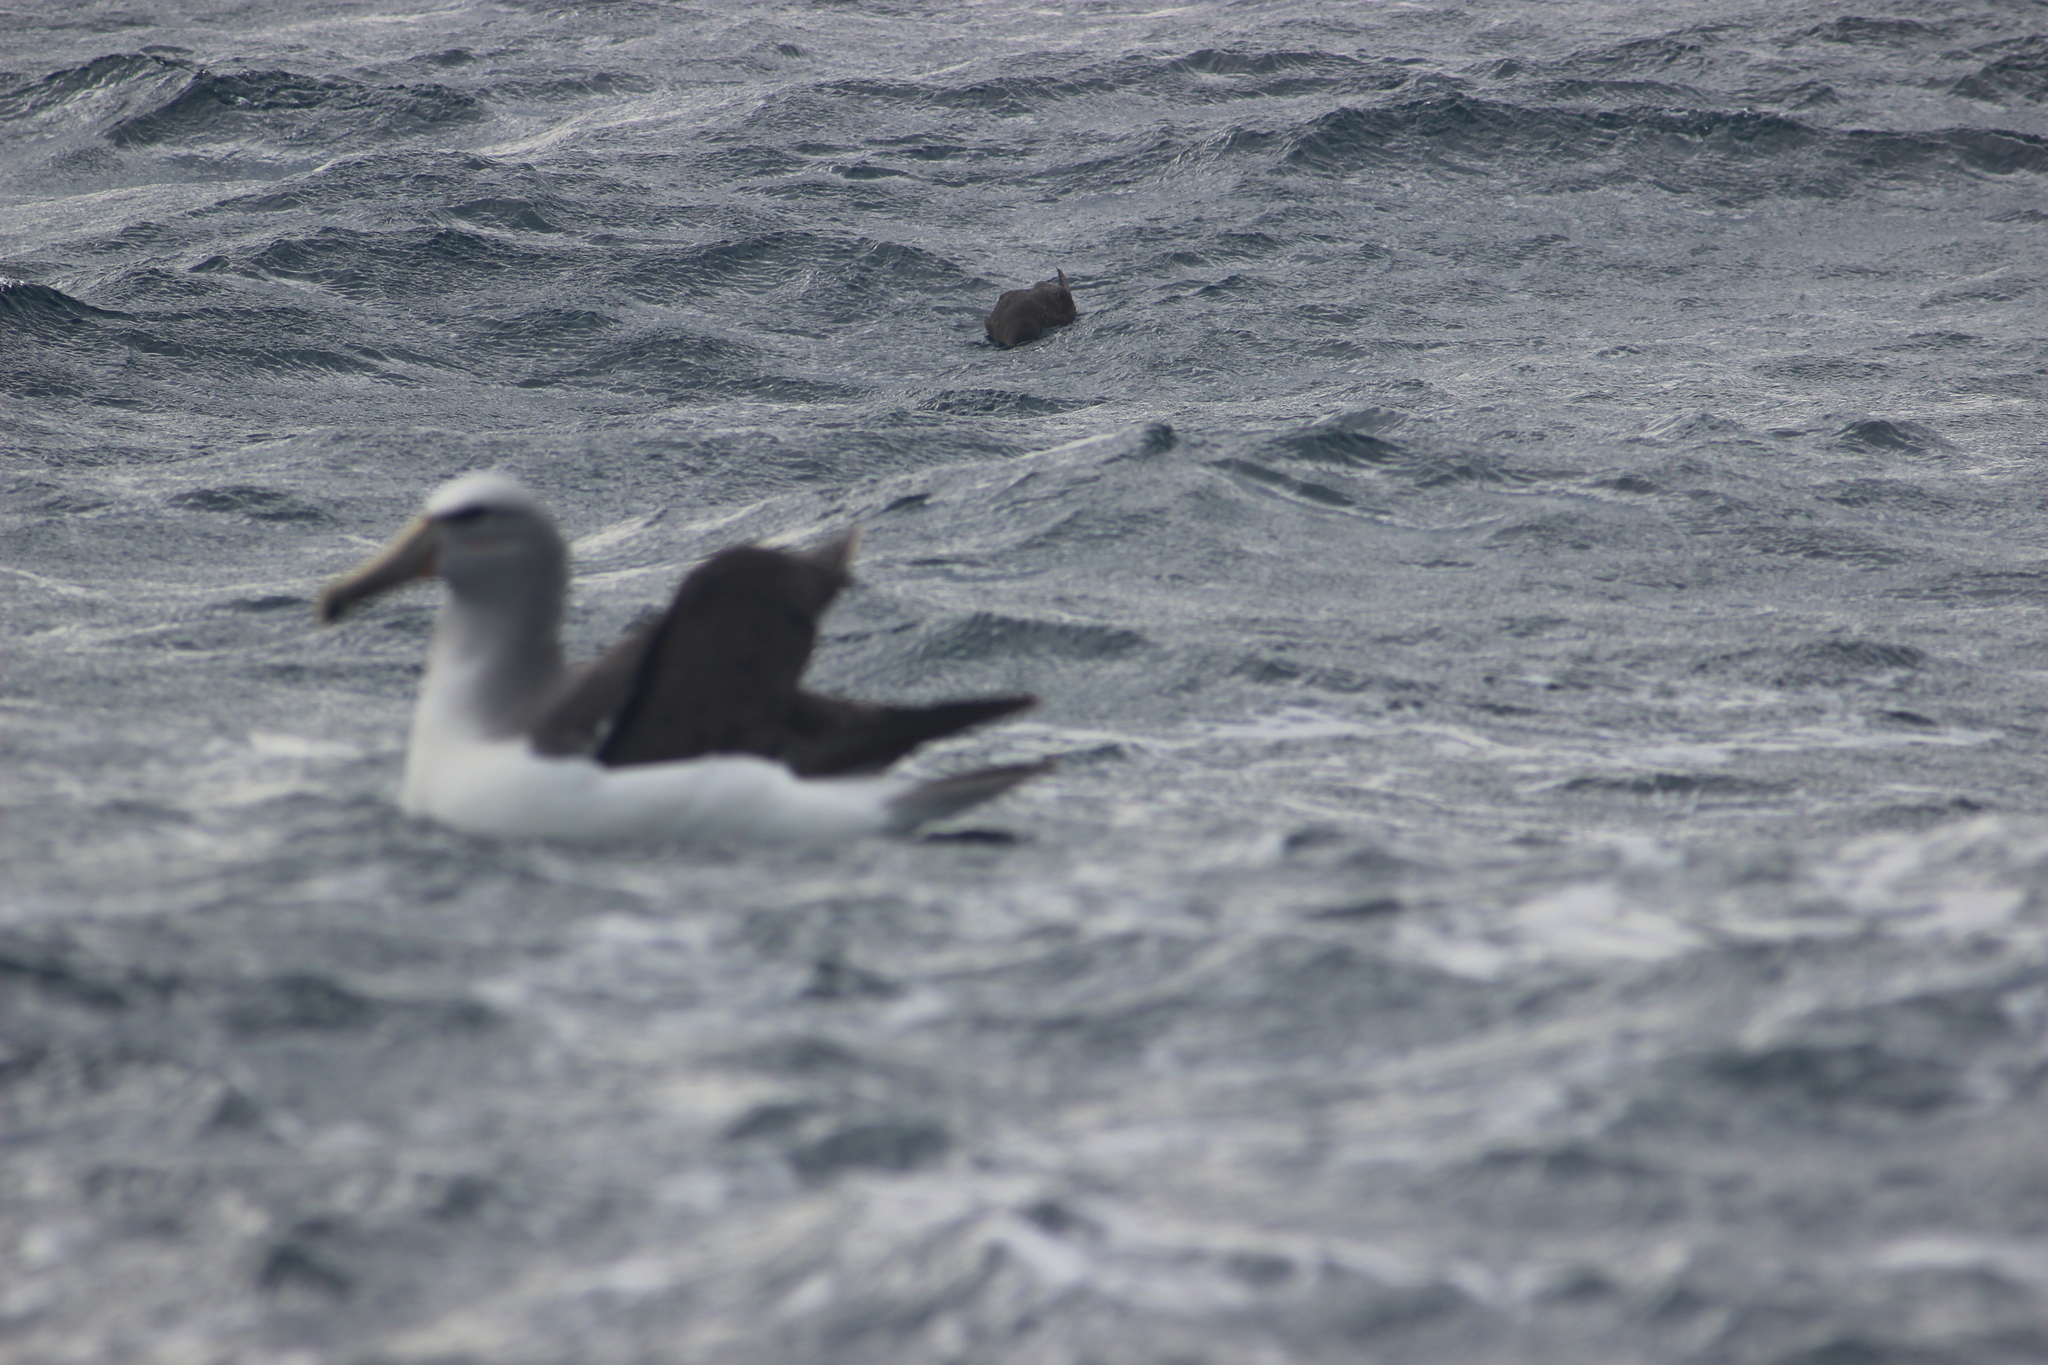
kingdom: Animalia
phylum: Chordata
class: Aves
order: Procellariiformes
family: Diomedeidae
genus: Thalassarche
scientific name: Thalassarche salvini
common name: Salvin's albatross
